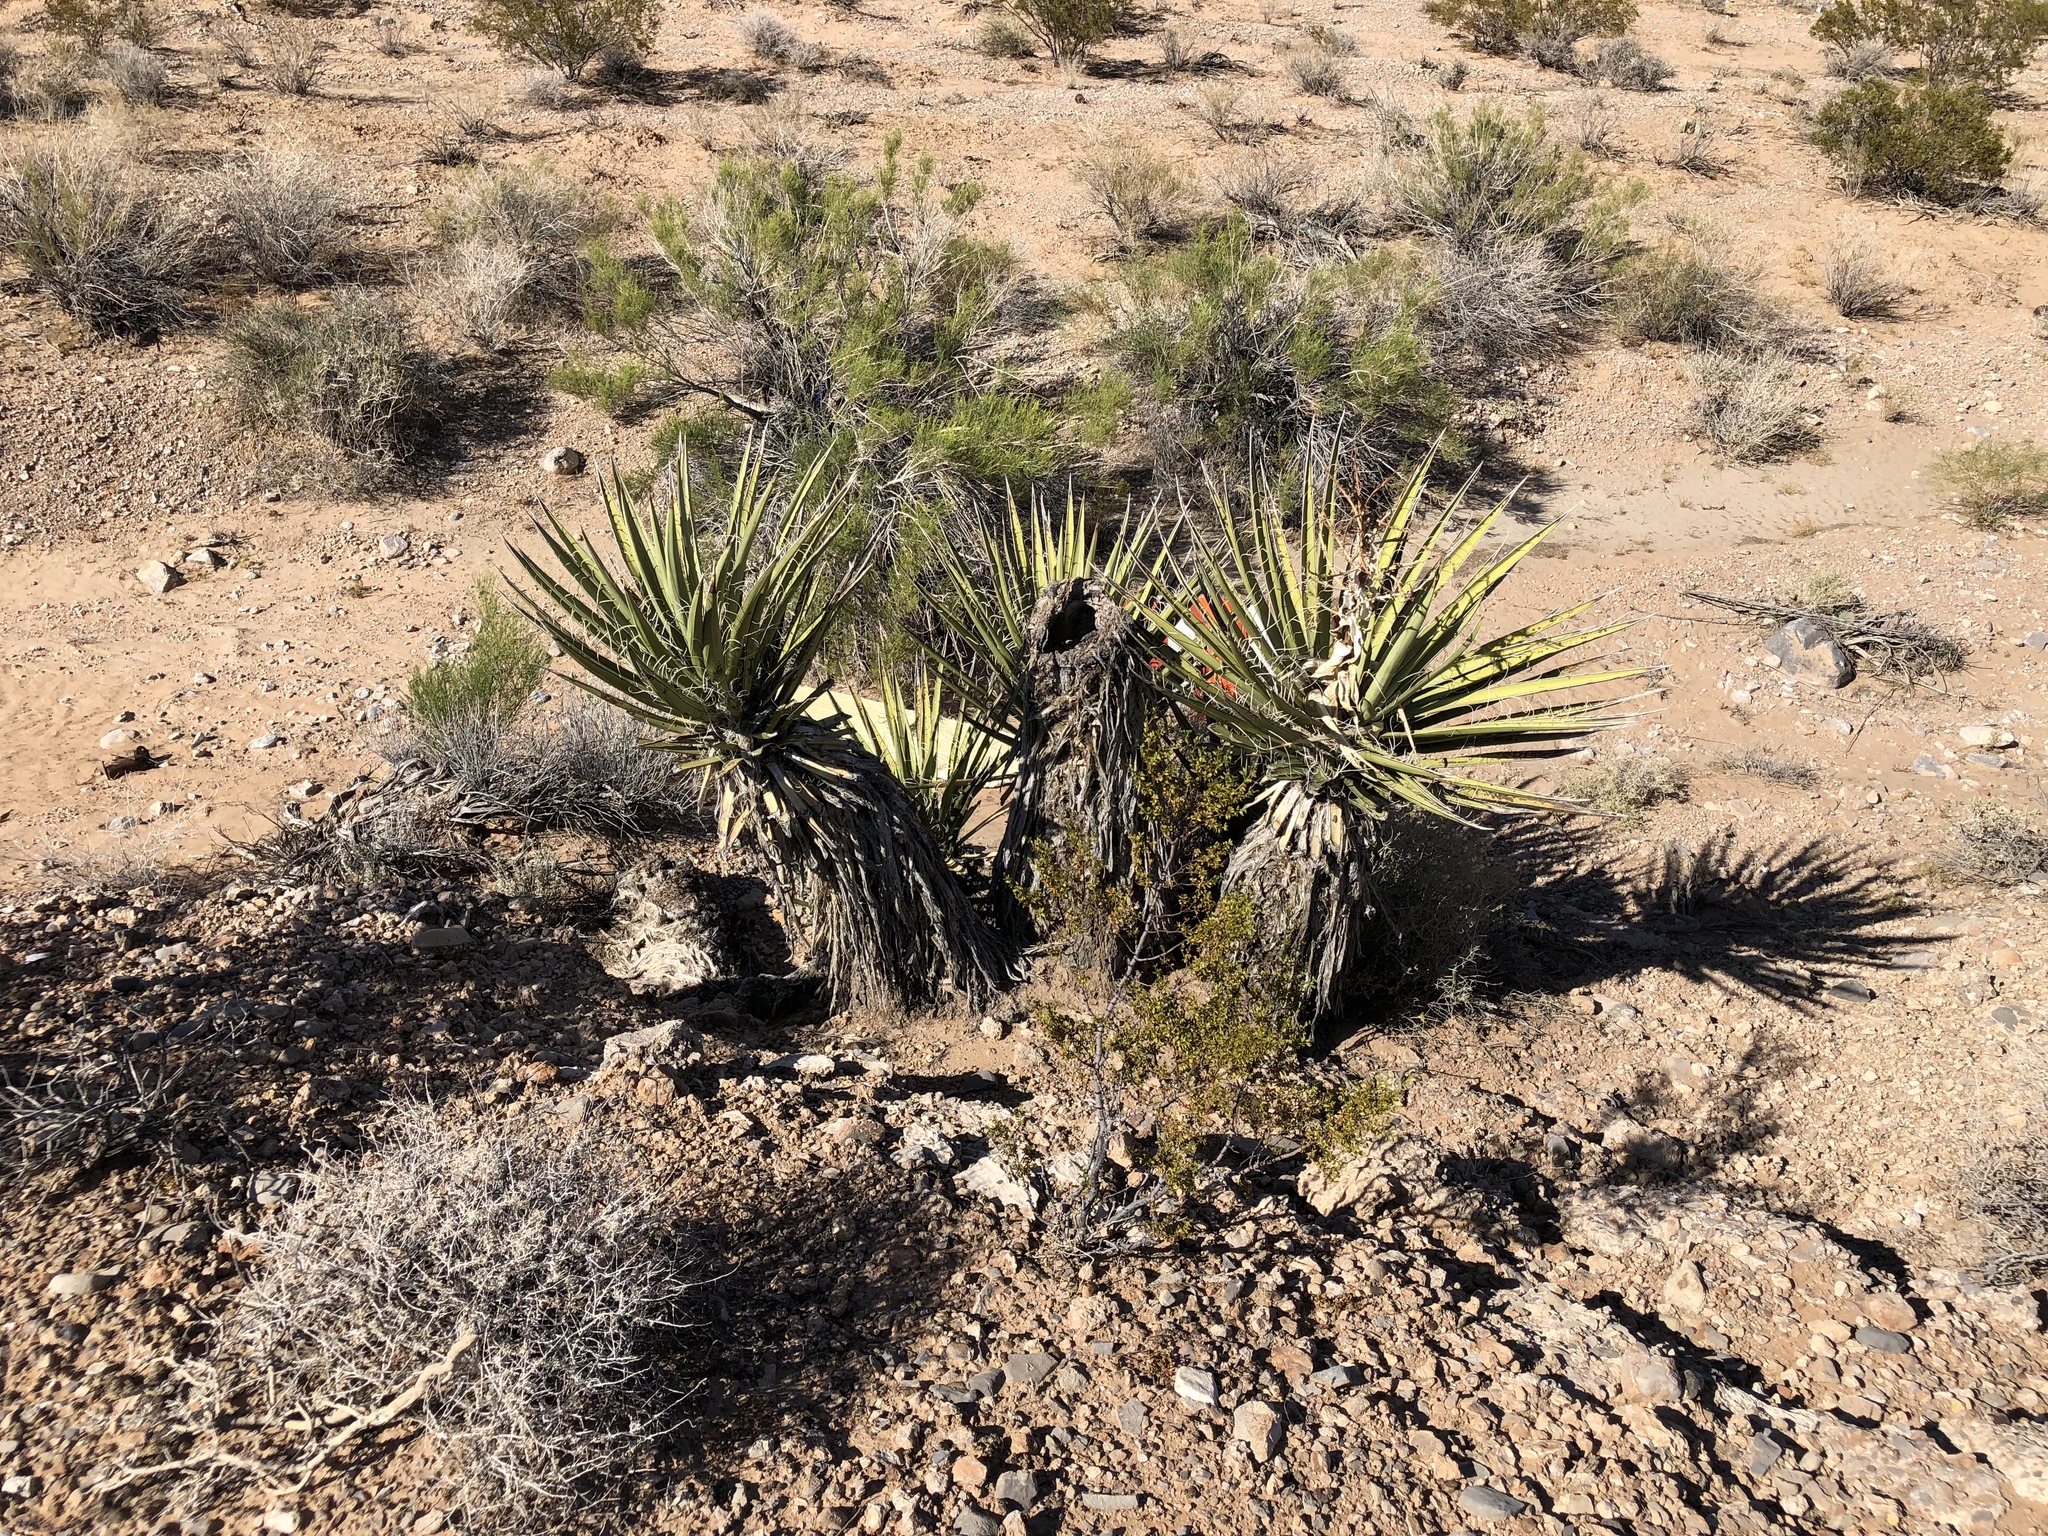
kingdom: Plantae
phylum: Tracheophyta
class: Liliopsida
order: Asparagales
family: Asparagaceae
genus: Yucca
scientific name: Yucca schidigera
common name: Mojave yucca
